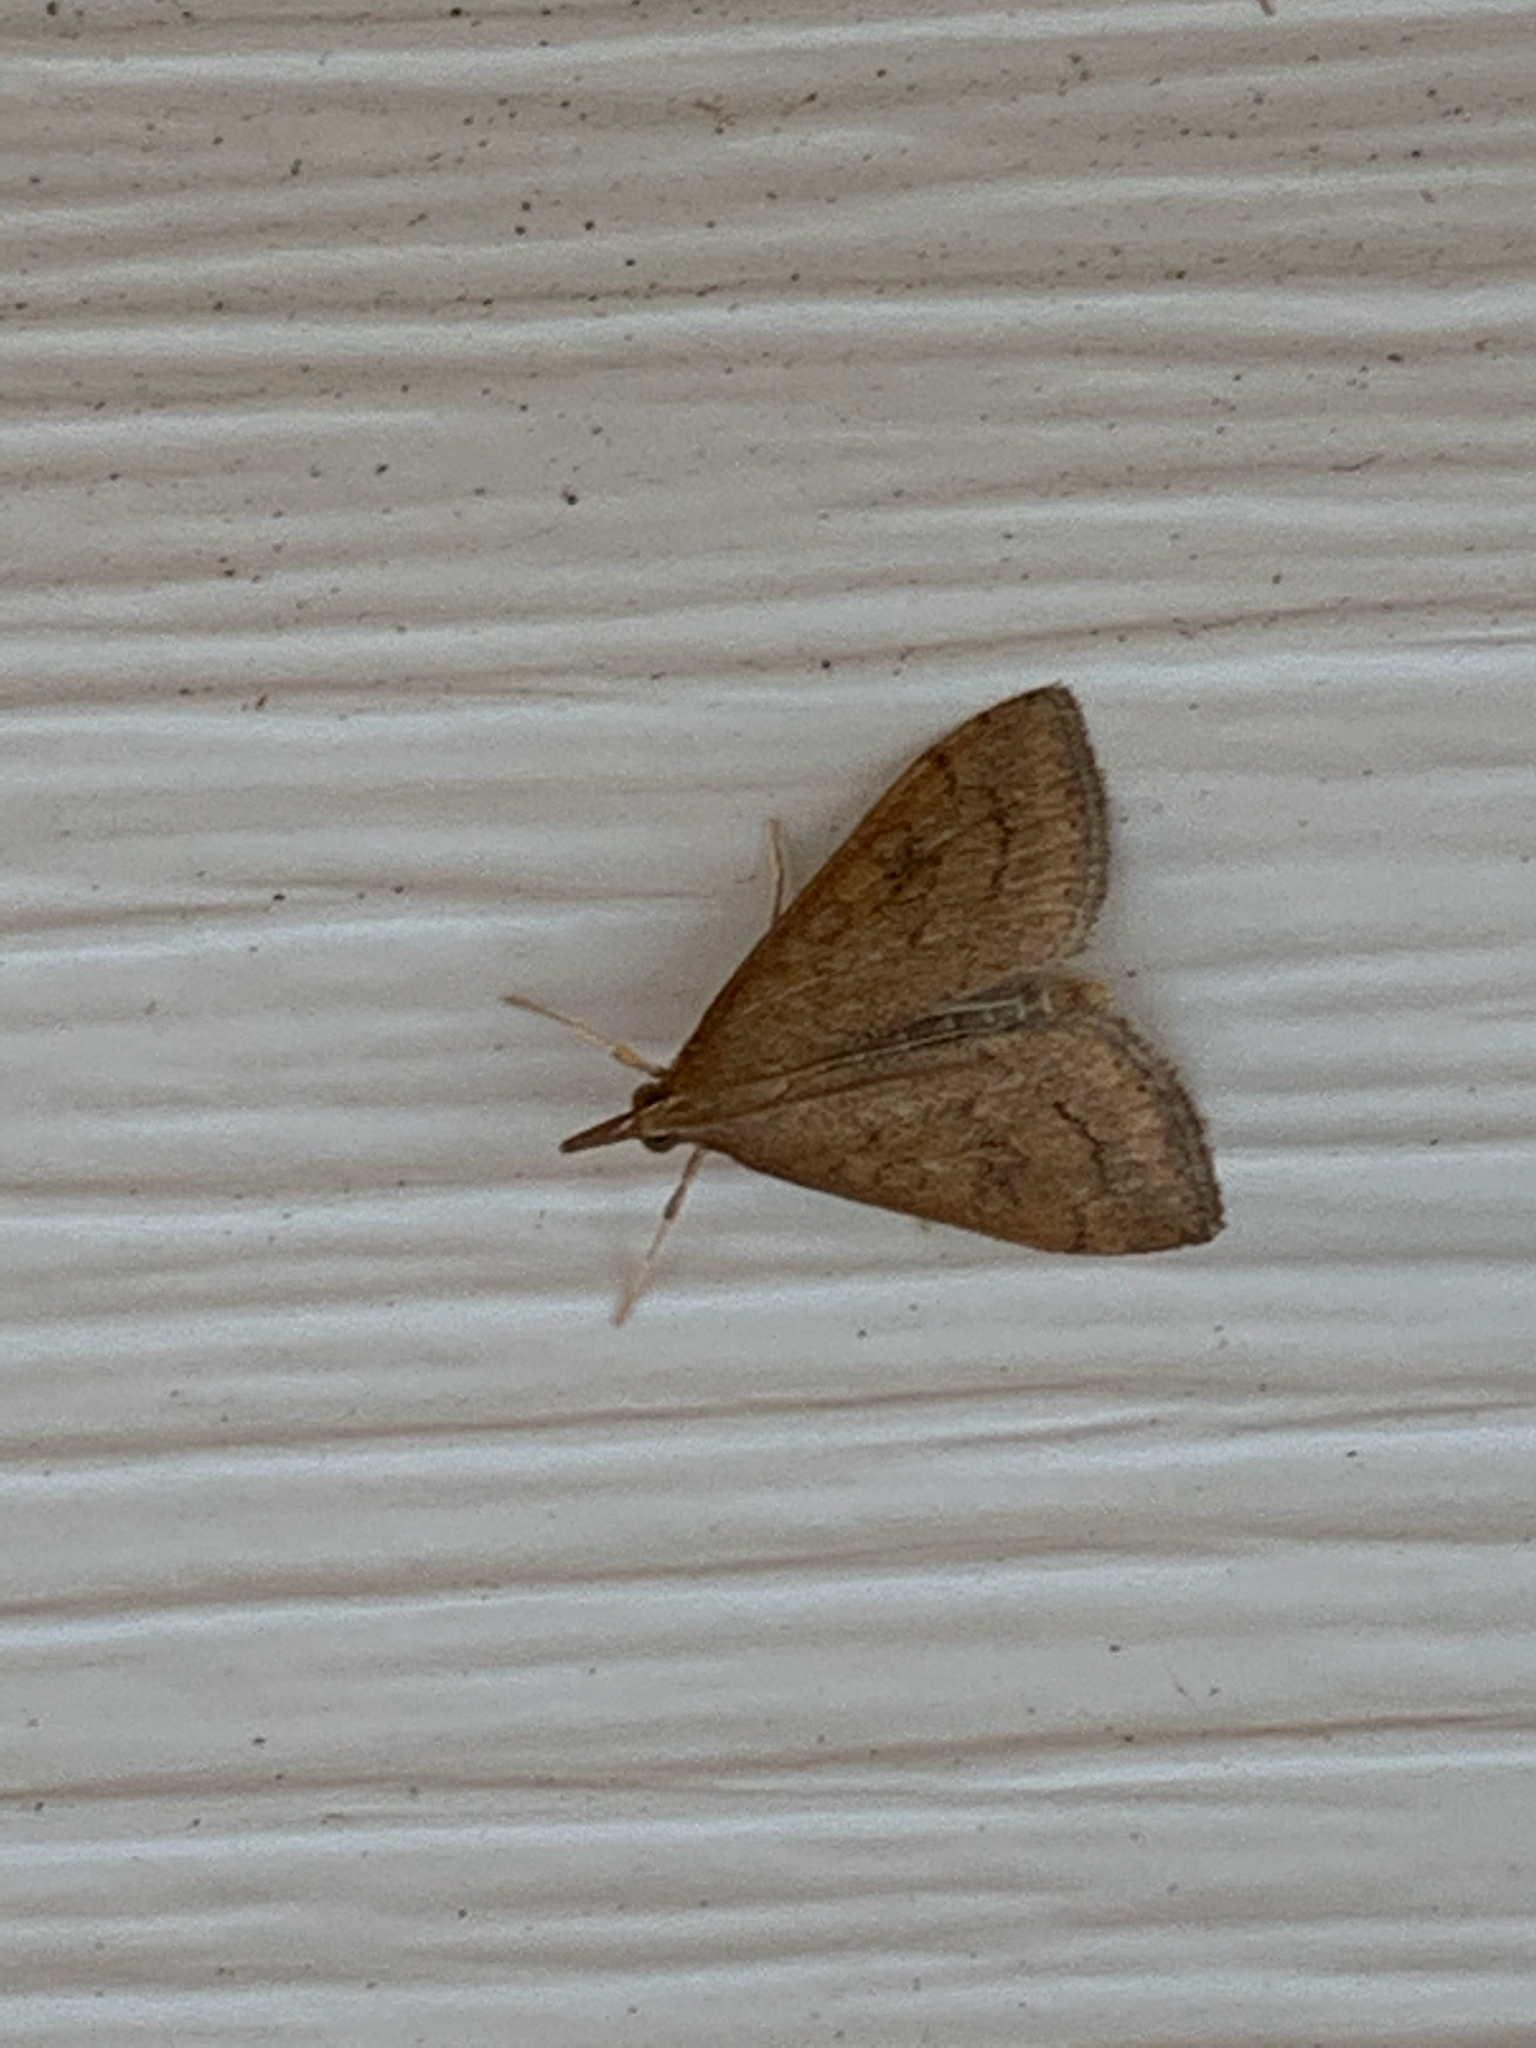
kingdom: Animalia
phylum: Arthropoda
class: Insecta
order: Lepidoptera
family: Crambidae
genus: Udea
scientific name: Udea rubigalis
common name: Celery leaftier moth
